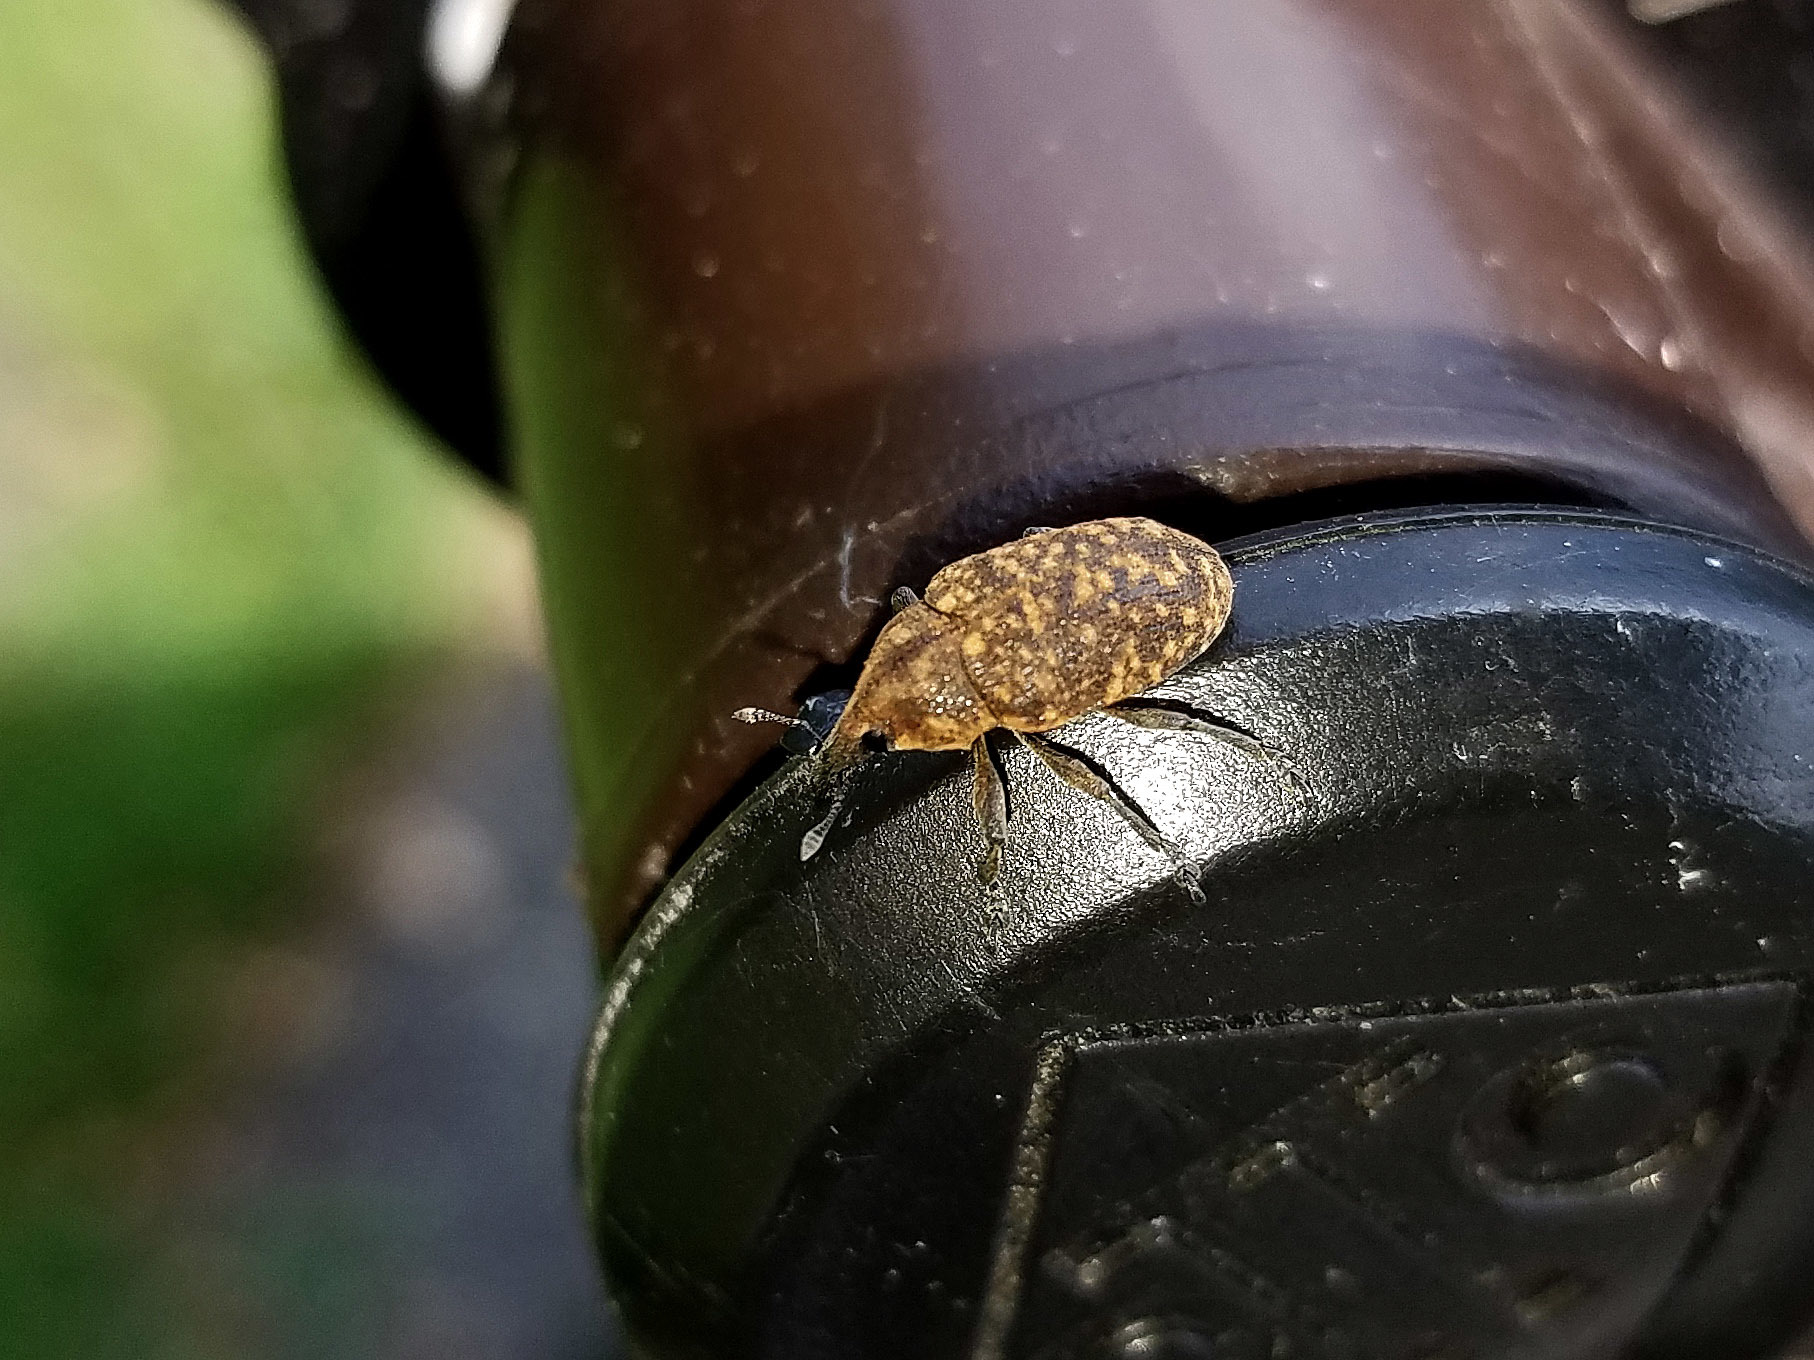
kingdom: Animalia
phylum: Arthropoda
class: Insecta
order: Coleoptera
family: Curculionidae
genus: Larinus
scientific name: Larinus turbinatus
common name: Weevil
